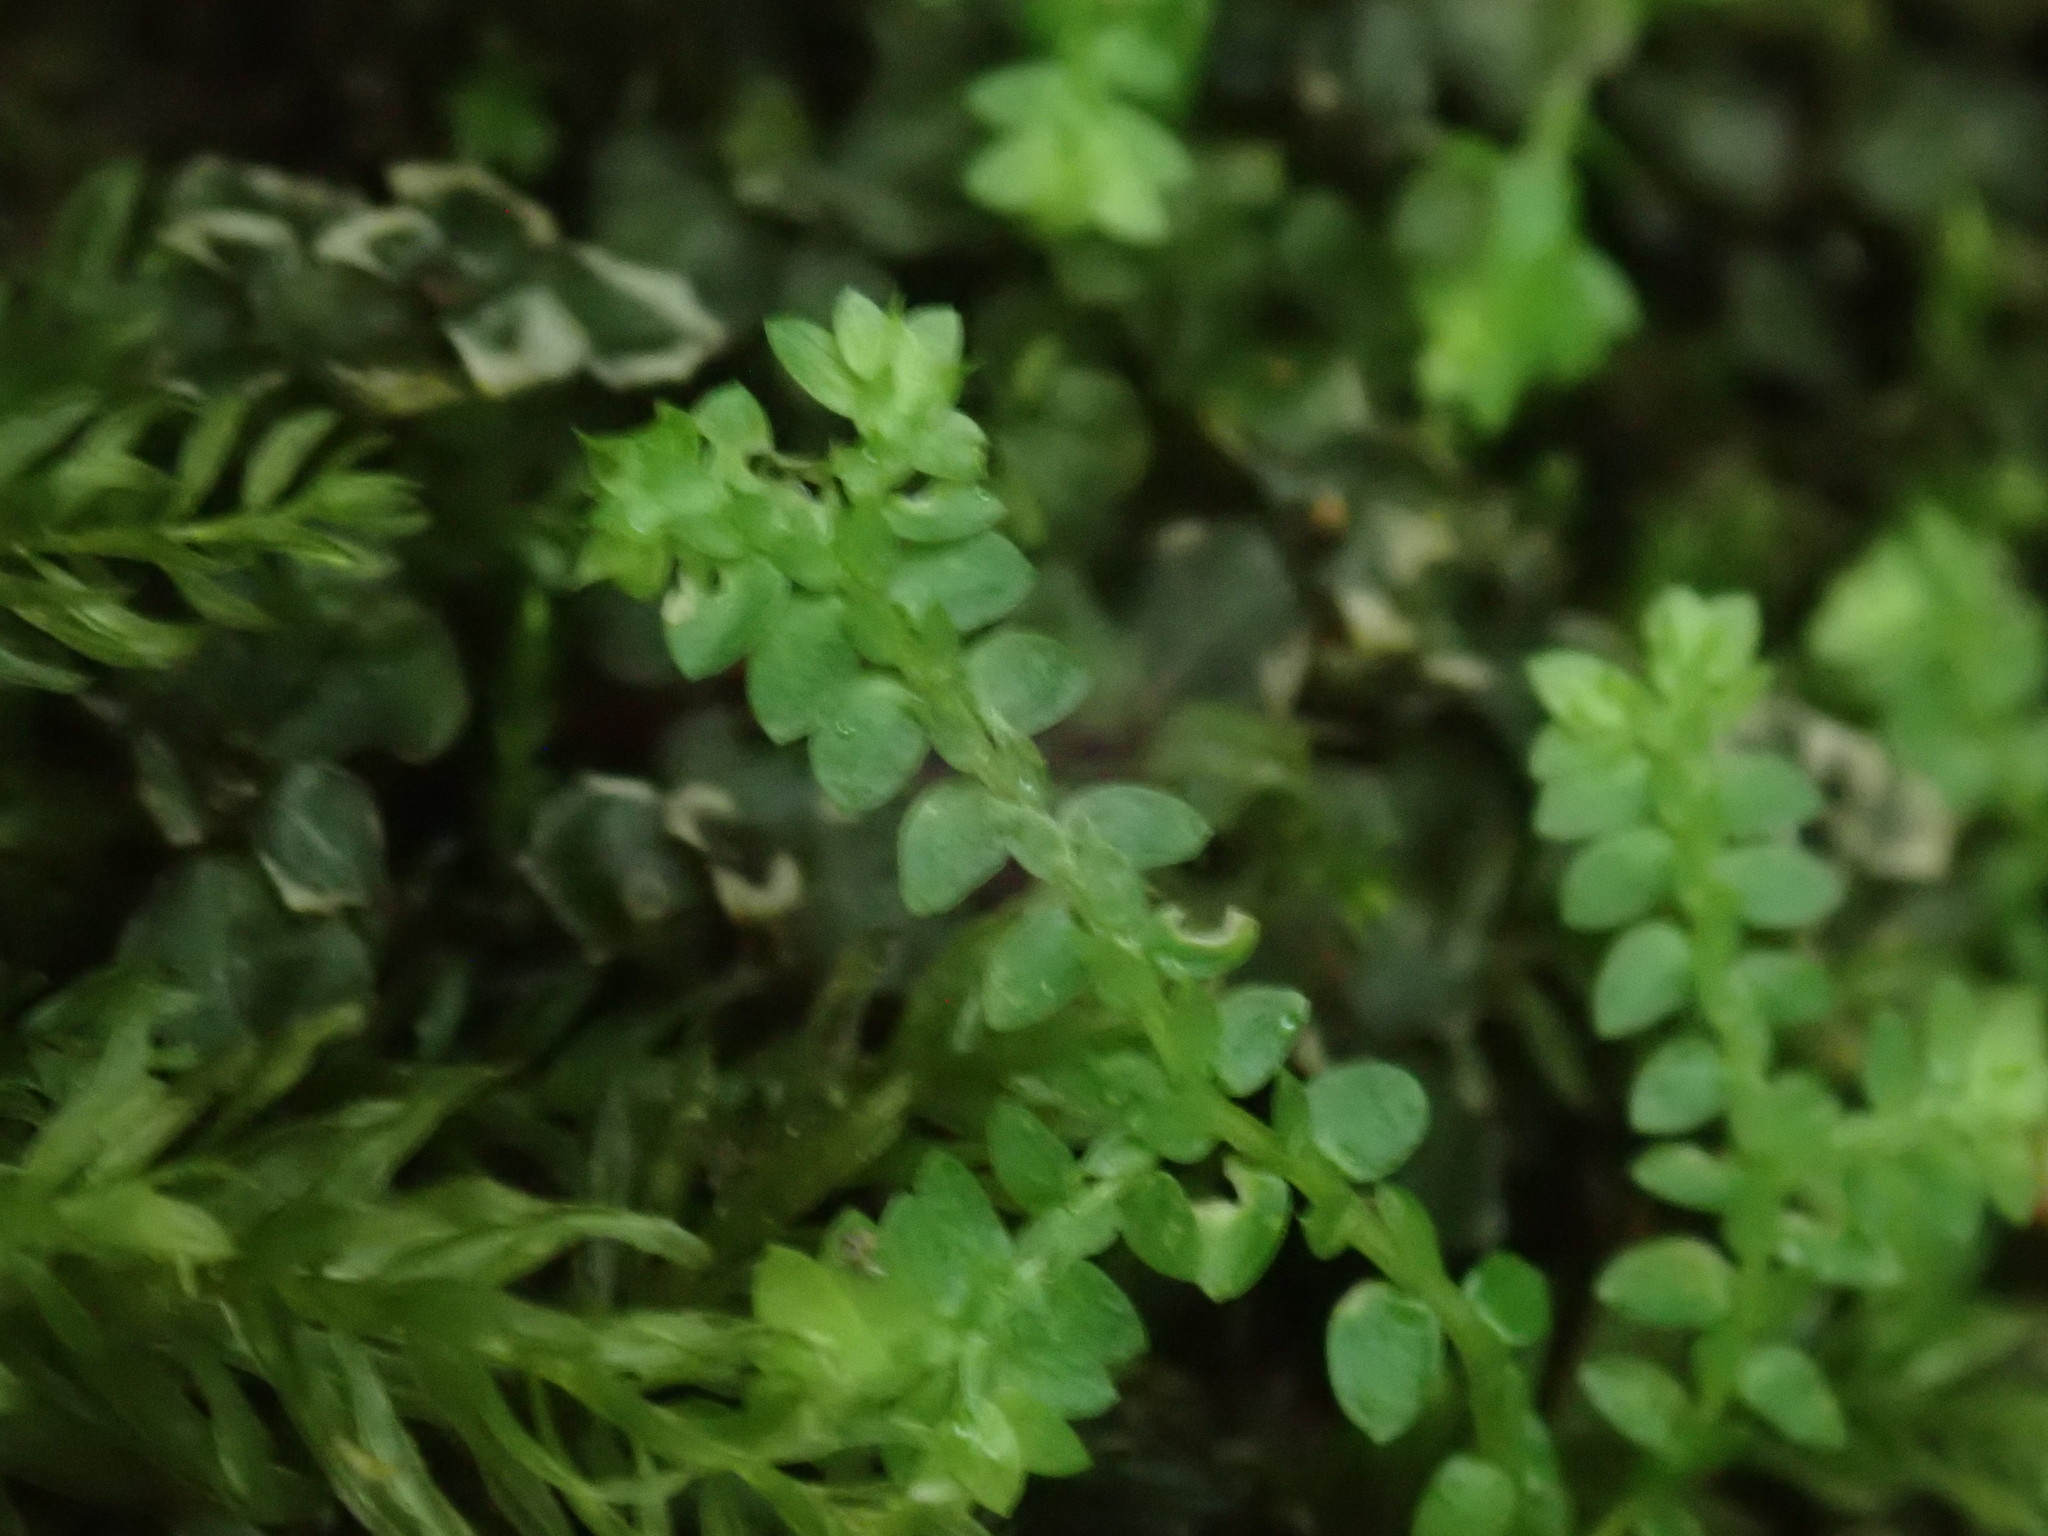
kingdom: Plantae
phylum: Tracheophyta
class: Lycopodiopsida
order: Selaginellales
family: Selaginellaceae
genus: Selaginella
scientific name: Selaginella apoda
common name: Creeping spikemoss
